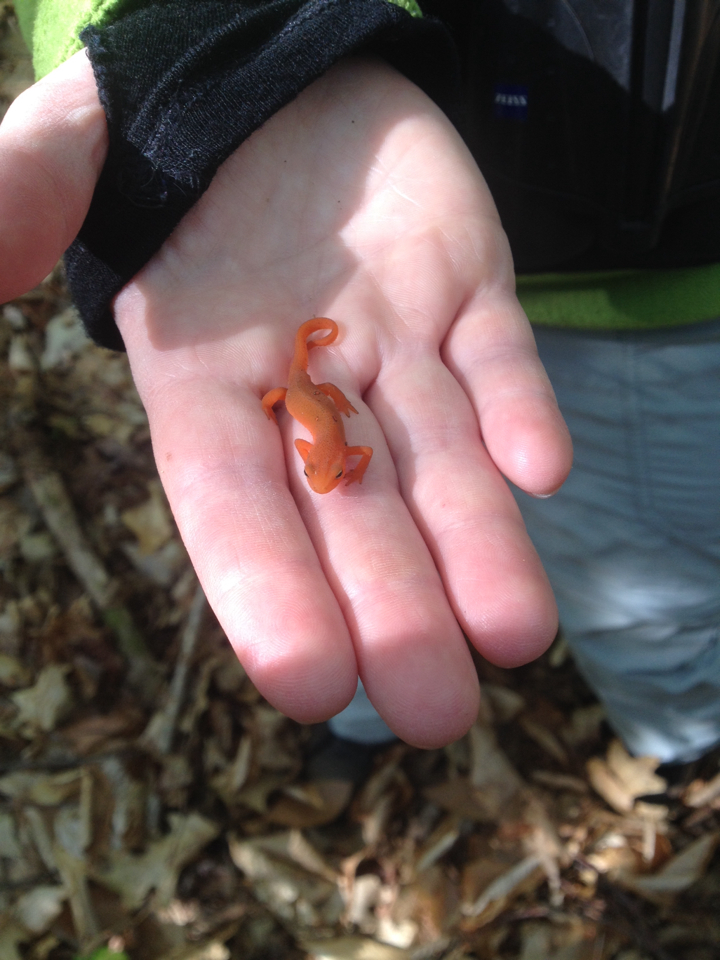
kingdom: Animalia
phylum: Chordata
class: Amphibia
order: Caudata
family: Salamandridae
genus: Notophthalmus
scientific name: Notophthalmus viridescens
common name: Eastern newt
